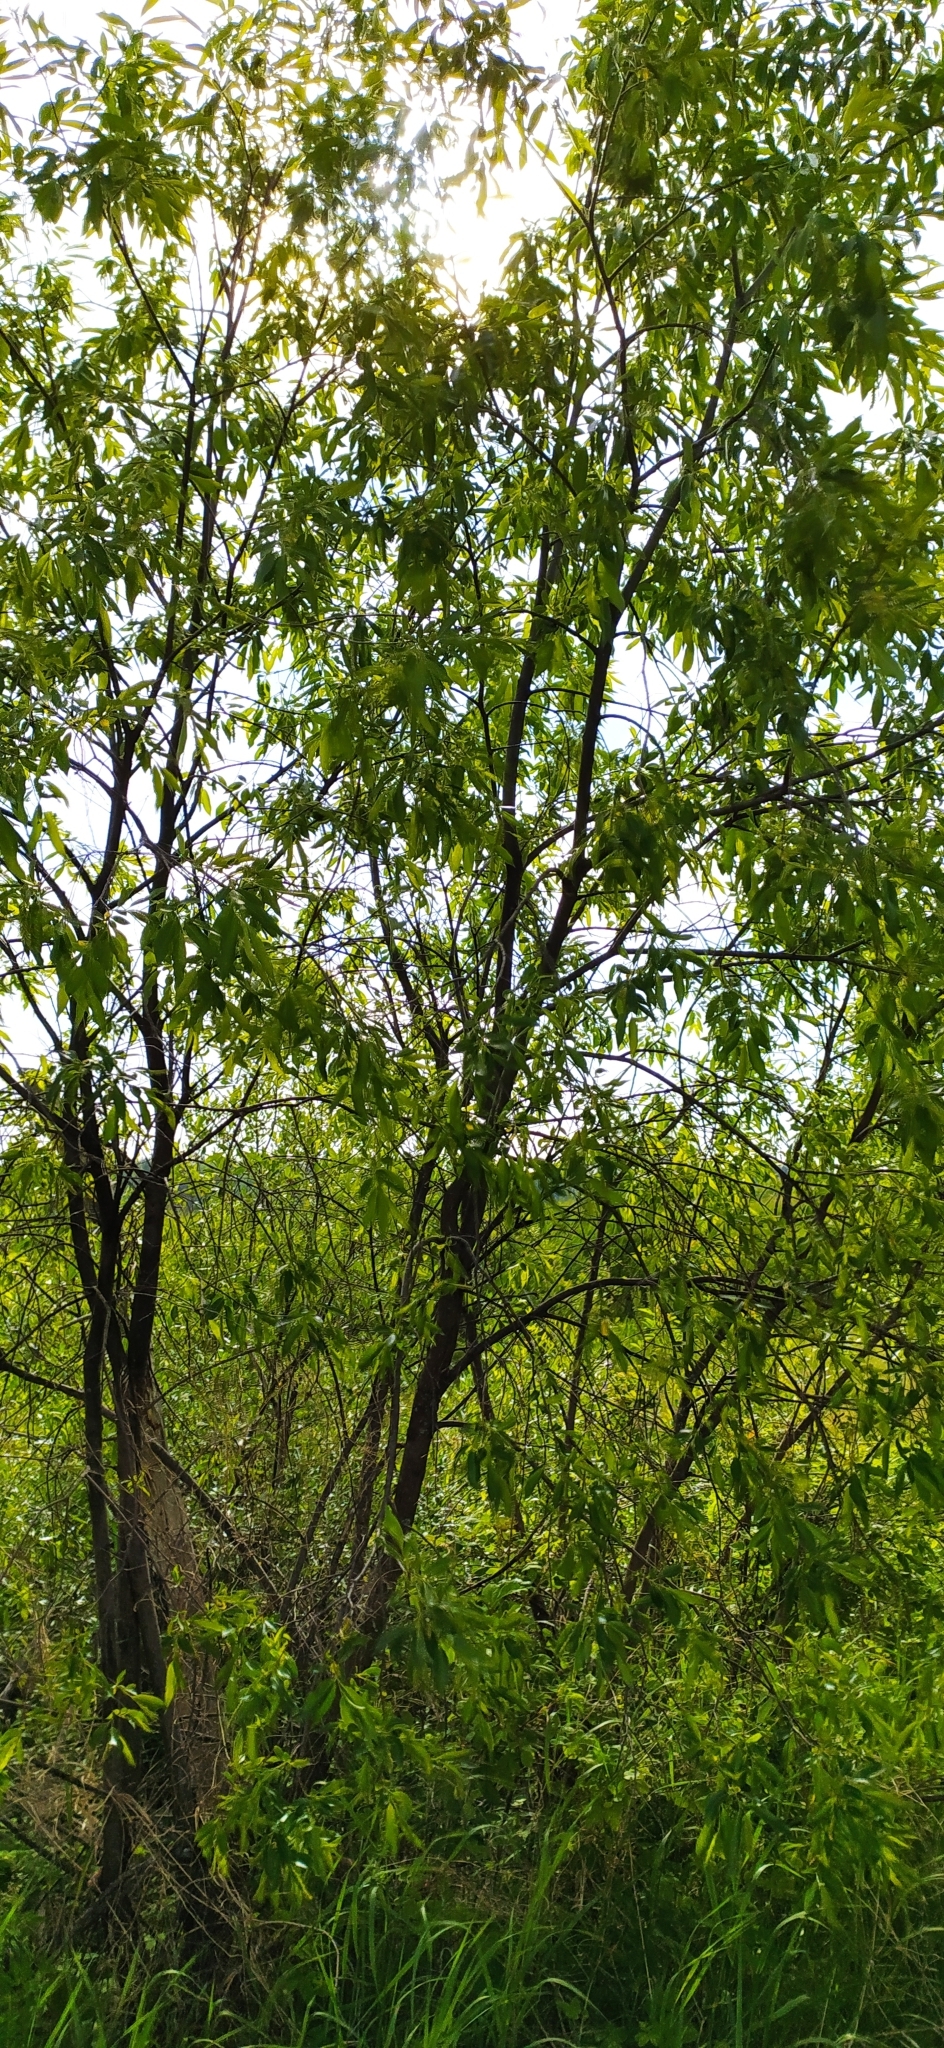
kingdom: Plantae
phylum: Tracheophyta
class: Magnoliopsida
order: Malpighiales
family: Salicaceae
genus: Salix
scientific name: Salix pentandra
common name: Bay willow
